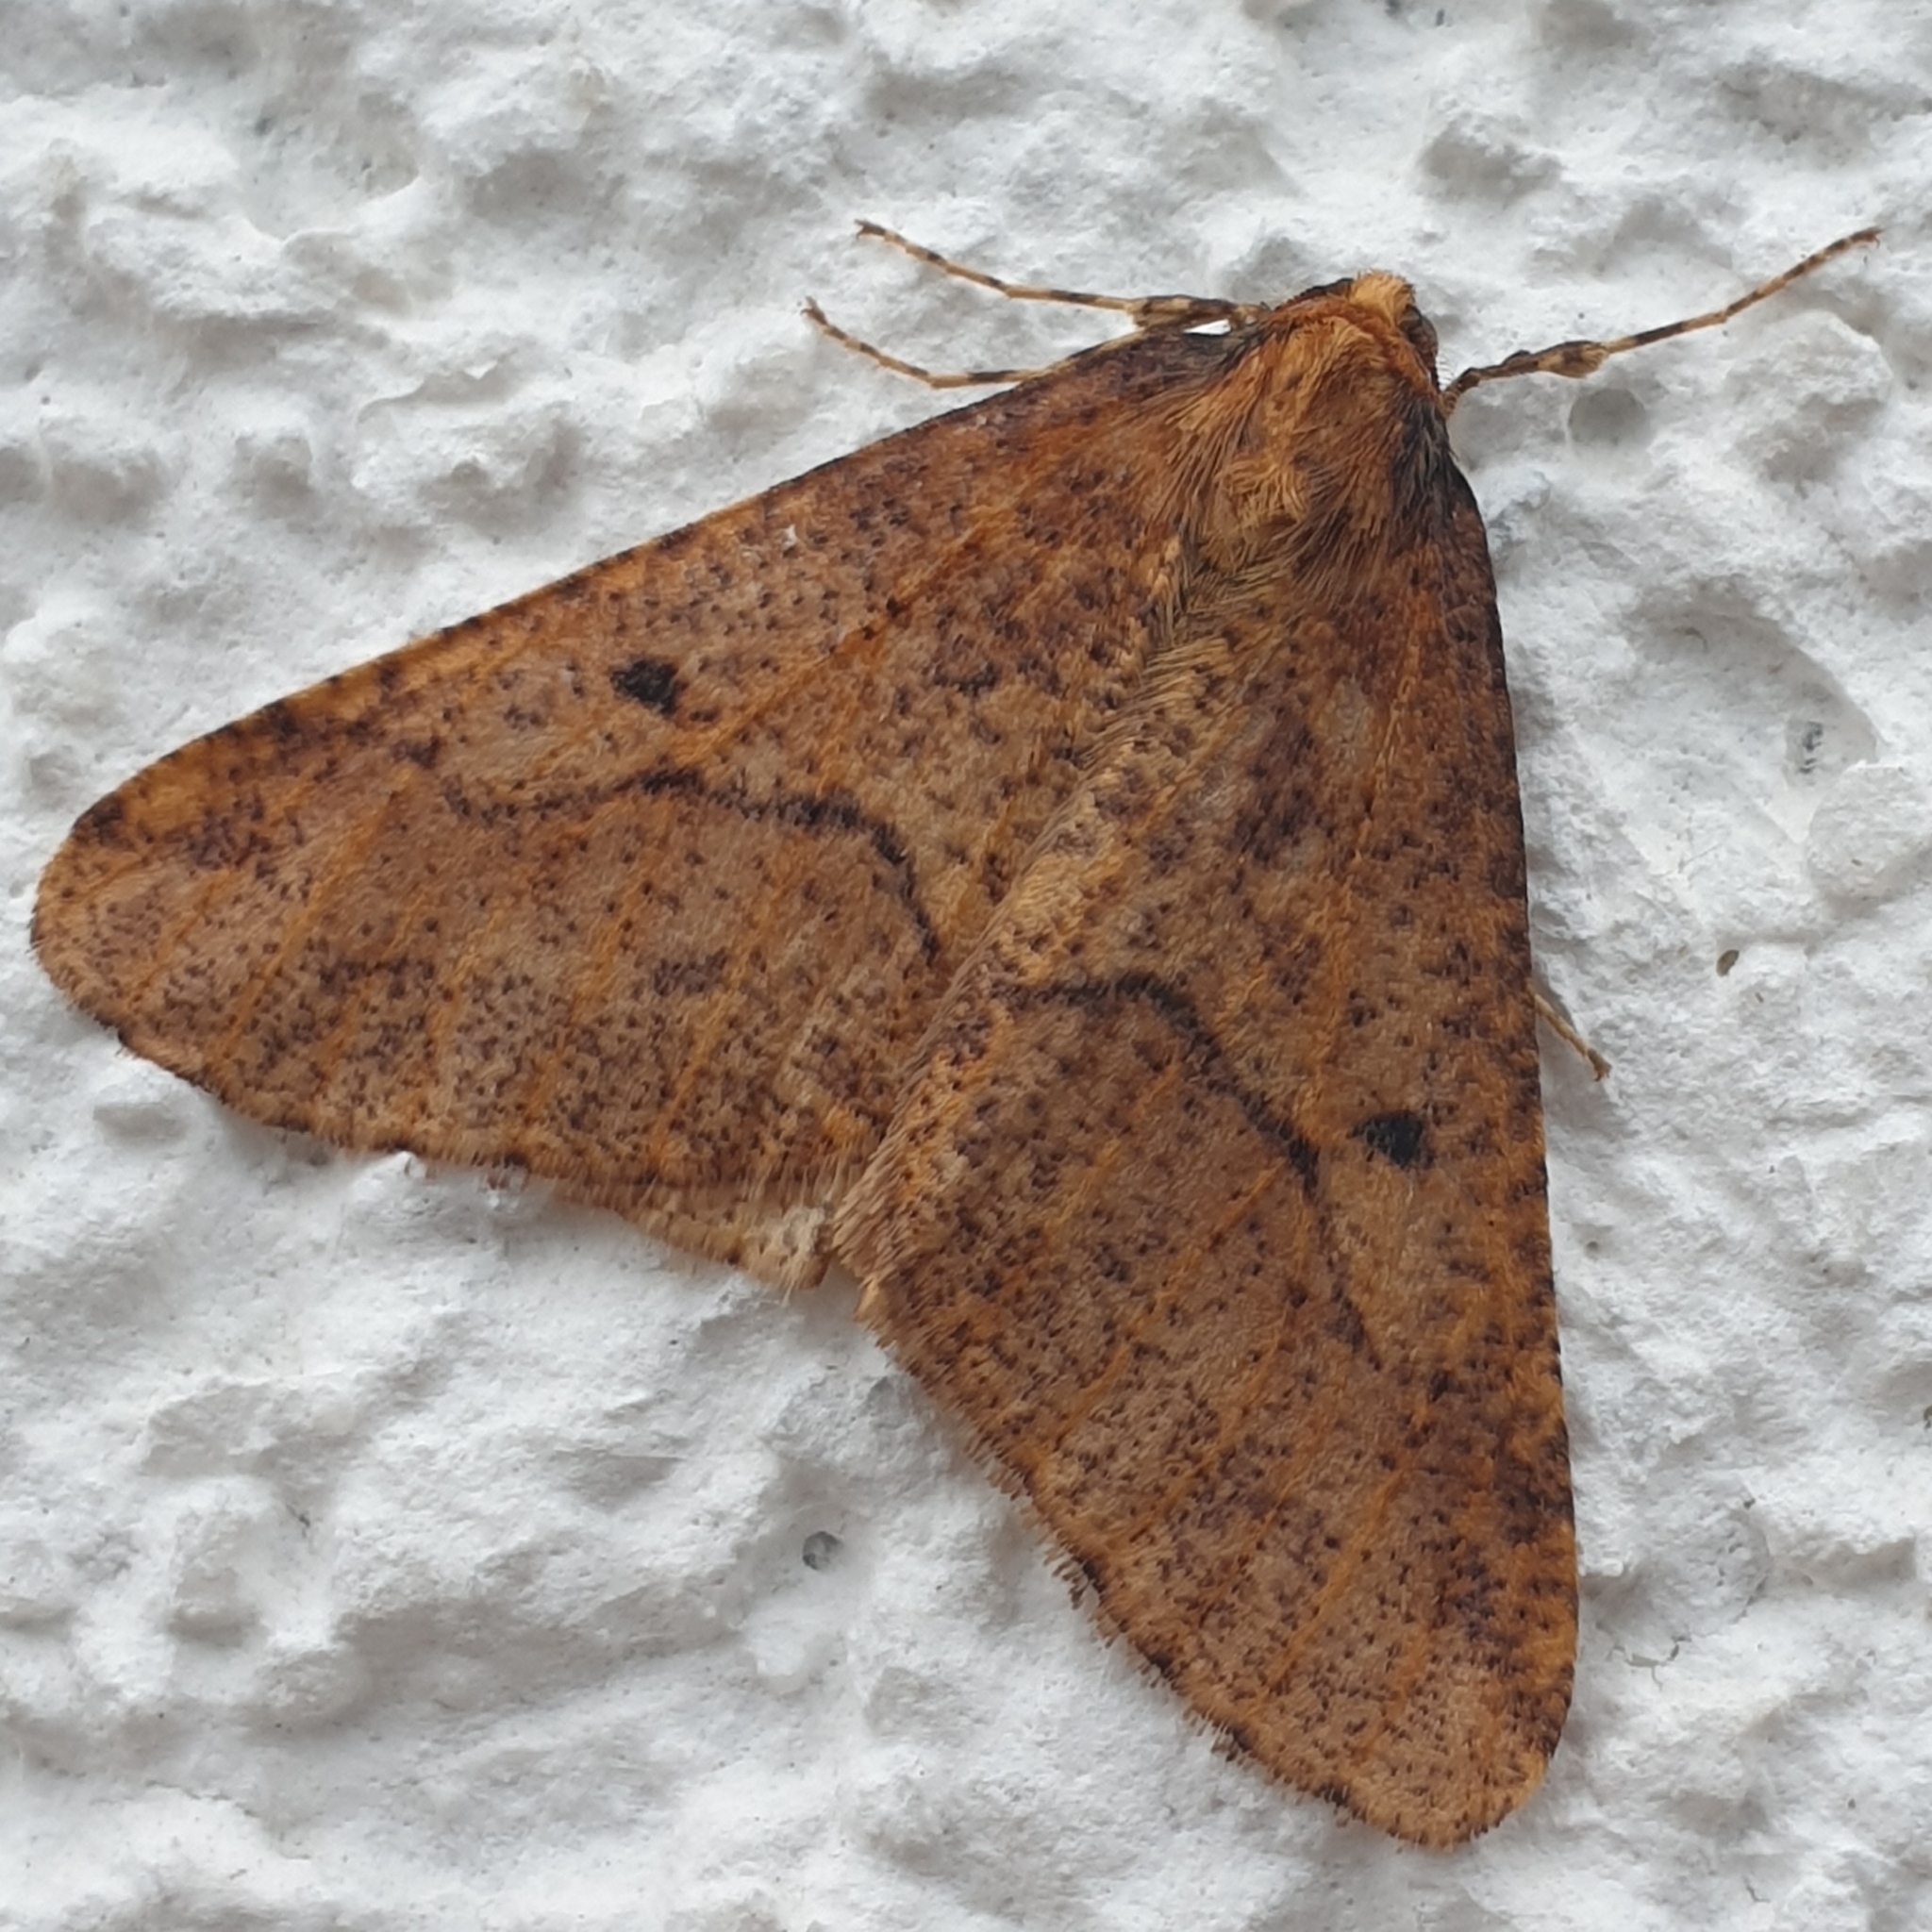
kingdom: Animalia
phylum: Arthropoda
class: Insecta
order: Lepidoptera
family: Geometridae
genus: Erannis
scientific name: Erannis defoliaria
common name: Mottled umber
